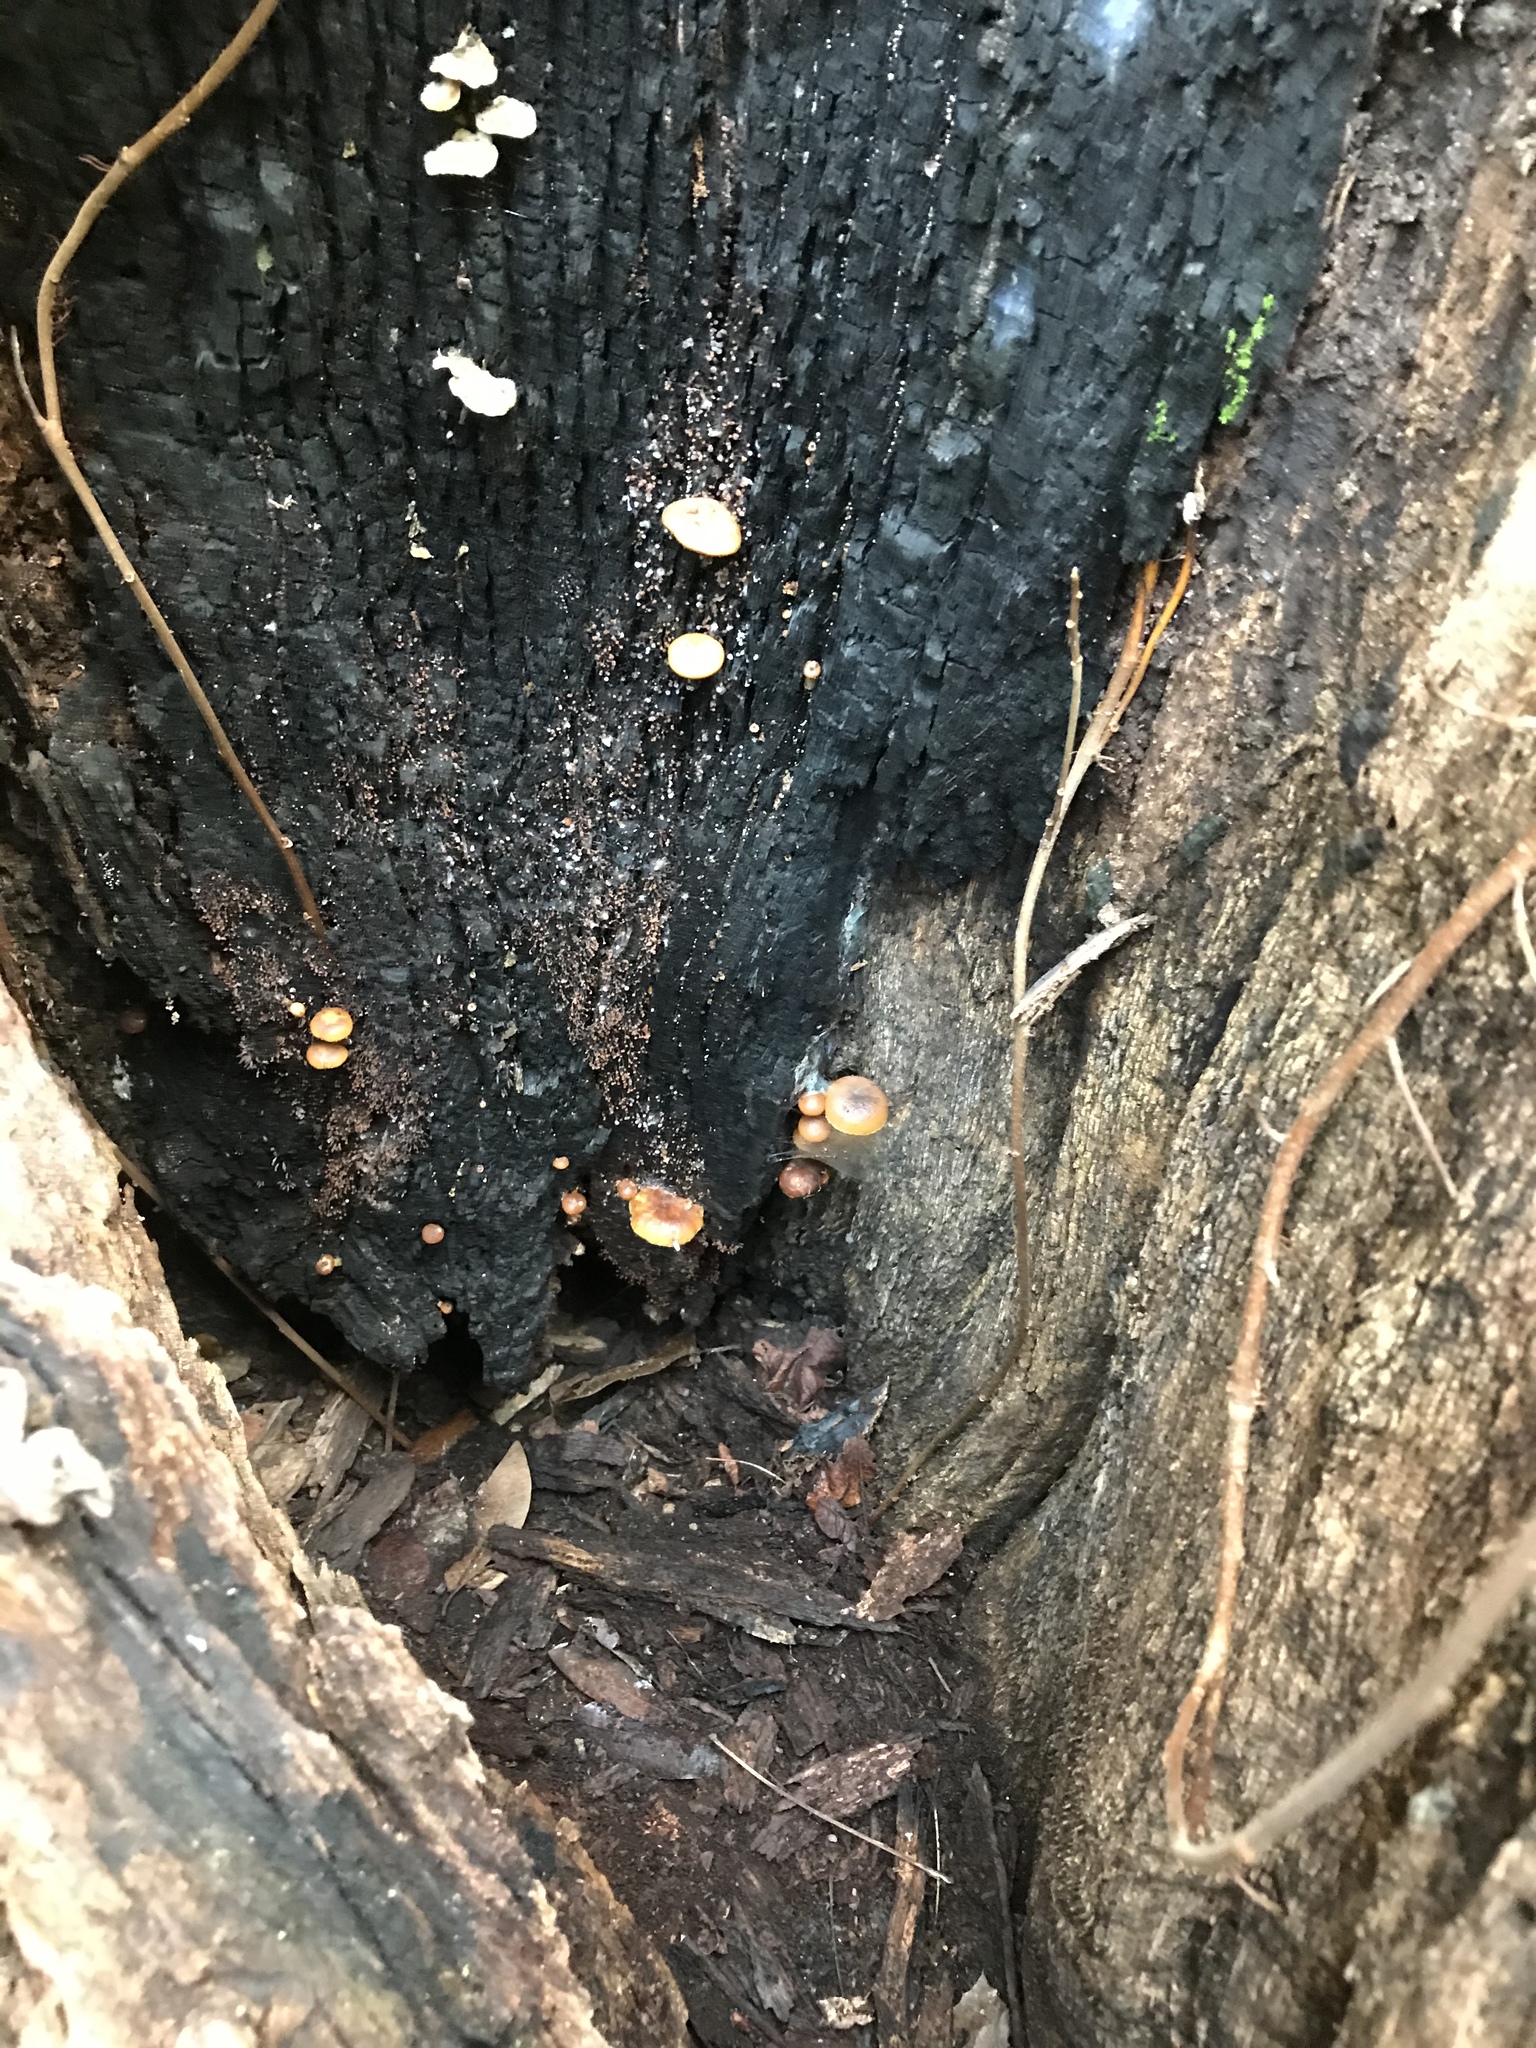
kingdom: Fungi
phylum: Basidiomycota
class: Agaricomycetes
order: Agaricales
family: Hymenogastraceae
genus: Galerina
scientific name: Galerina marginata
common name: Funeral bell
